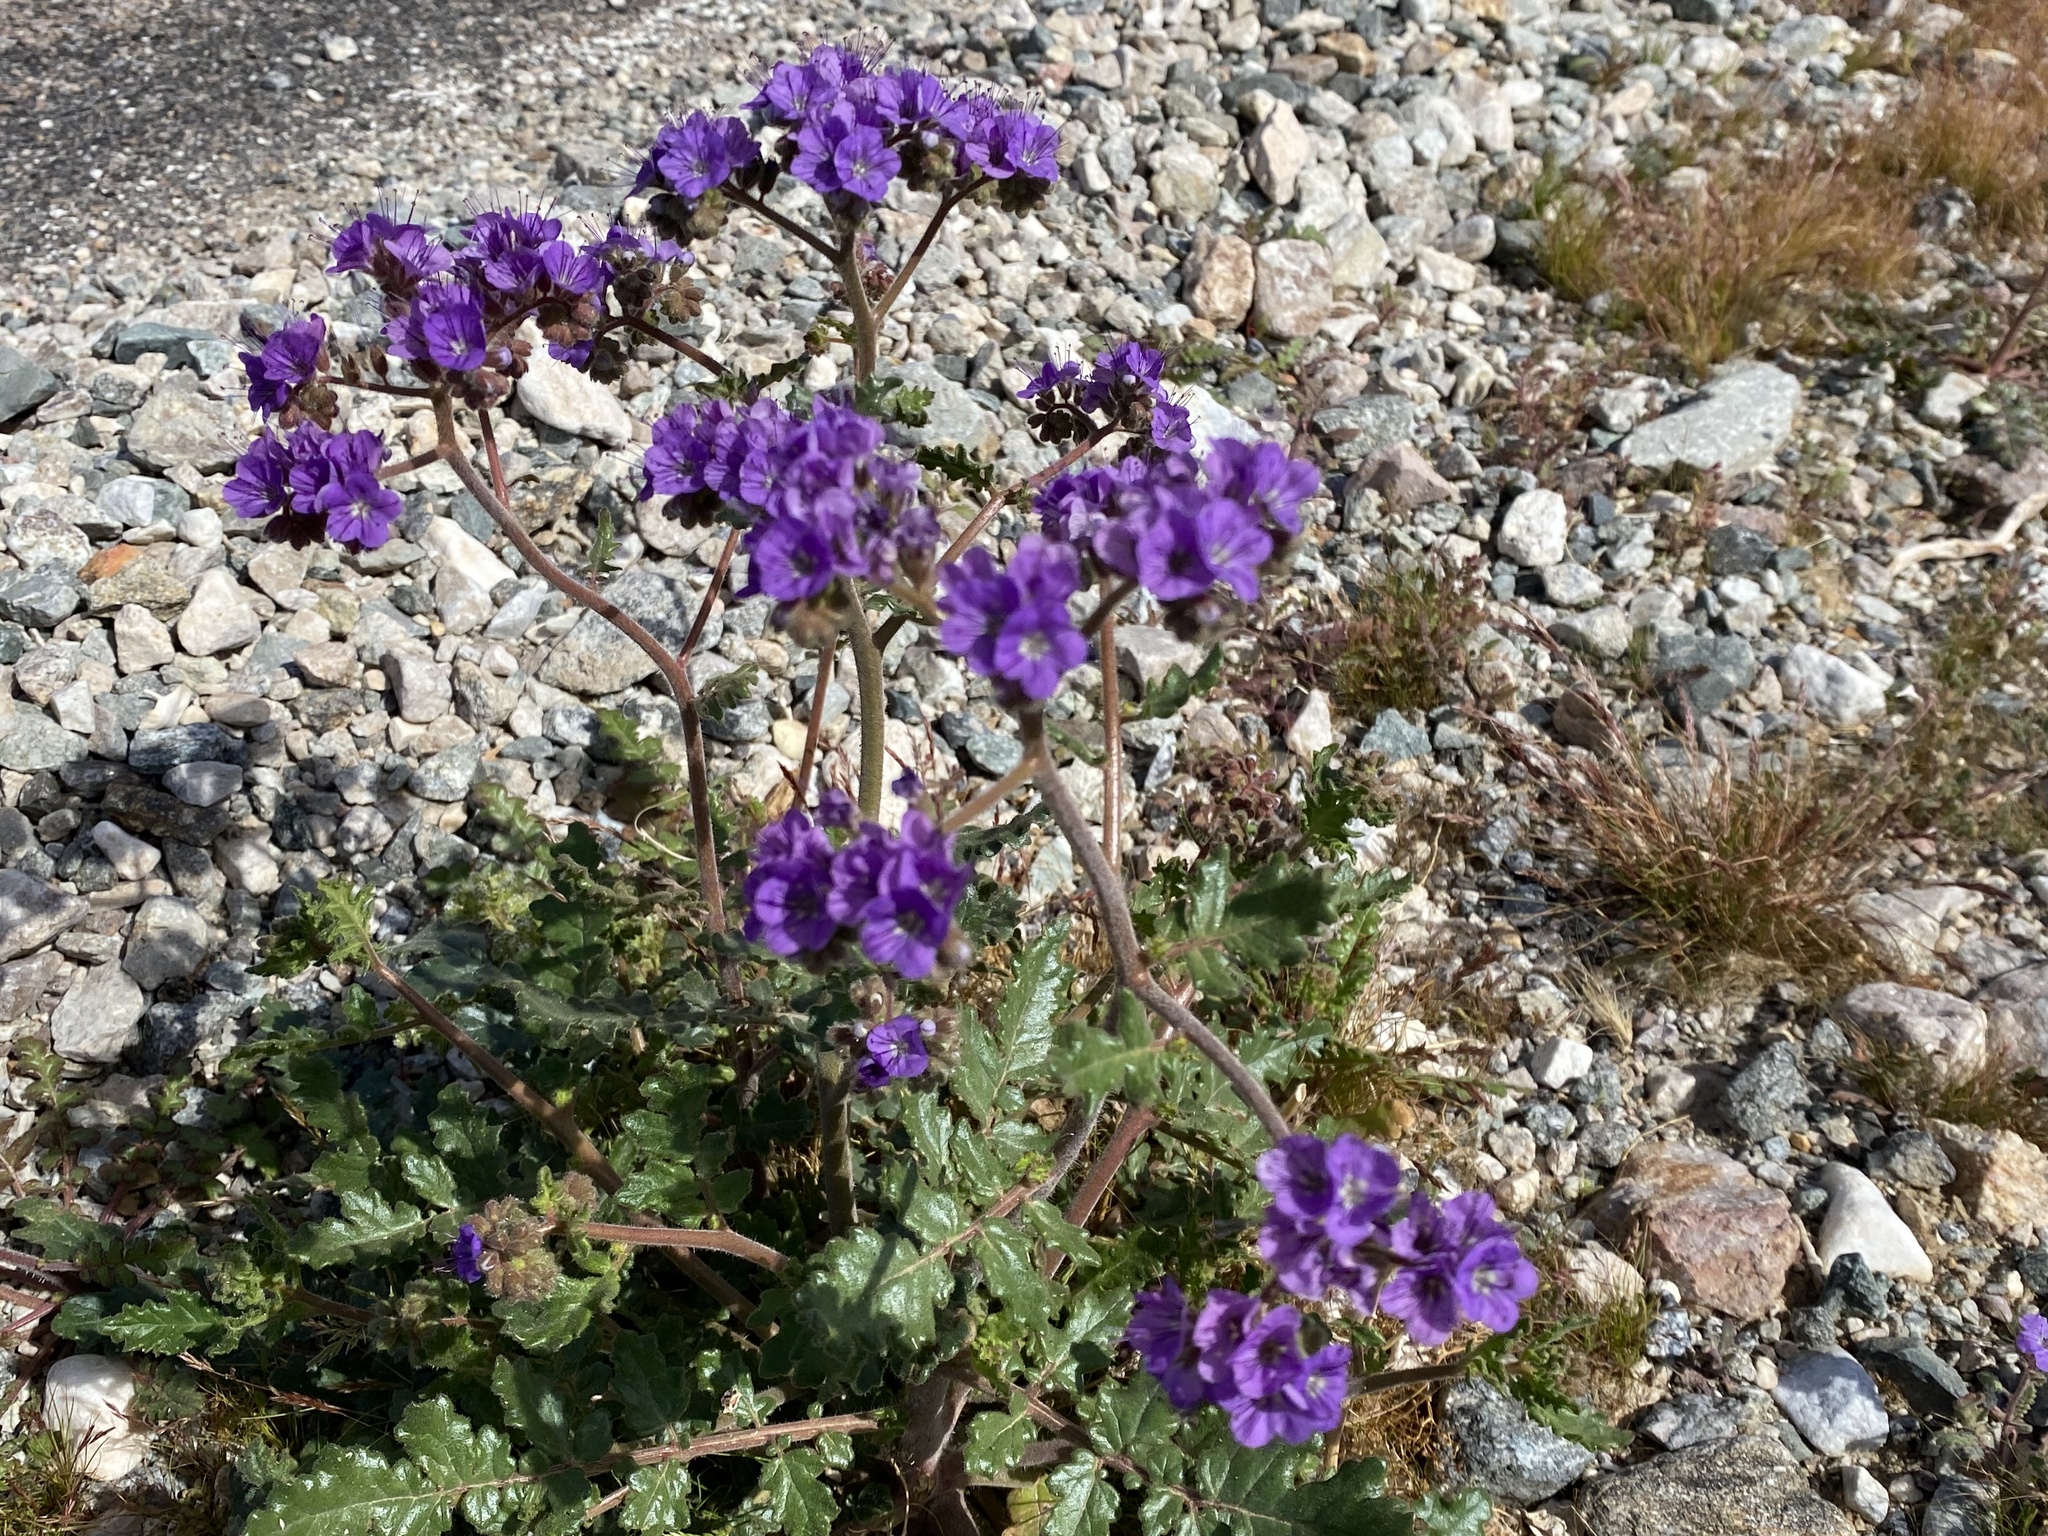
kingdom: Plantae
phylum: Tracheophyta
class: Magnoliopsida
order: Boraginales
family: Hydrophyllaceae
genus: Phacelia
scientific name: Phacelia crenulata
